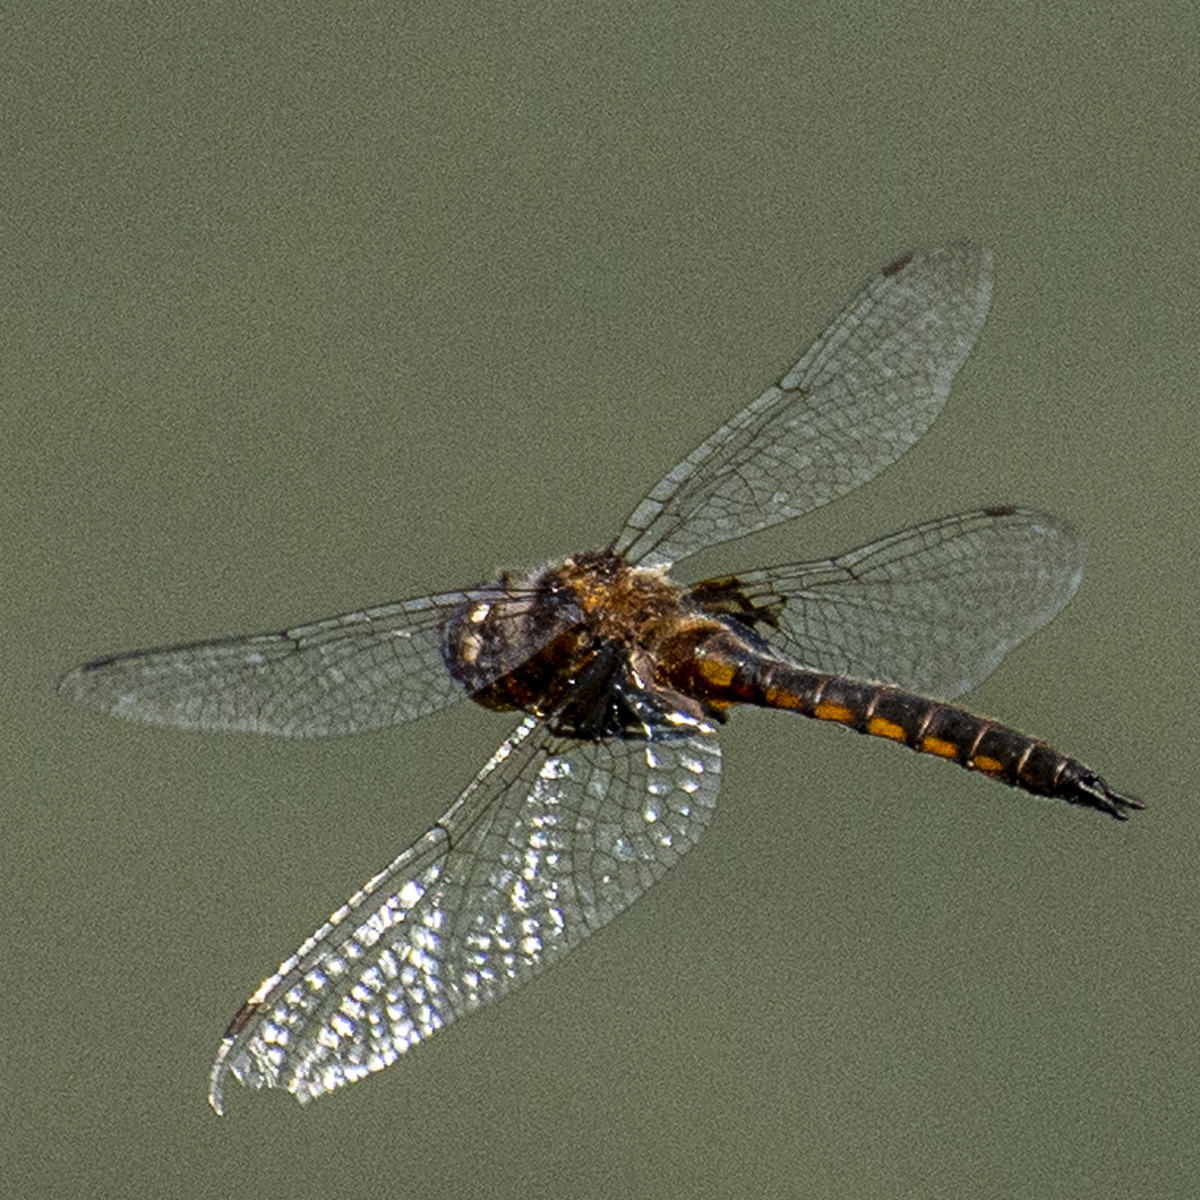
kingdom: Animalia
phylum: Arthropoda
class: Insecta
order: Odonata
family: Corduliidae
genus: Epitheca
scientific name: Epitheca cynosura
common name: Common baskettail
